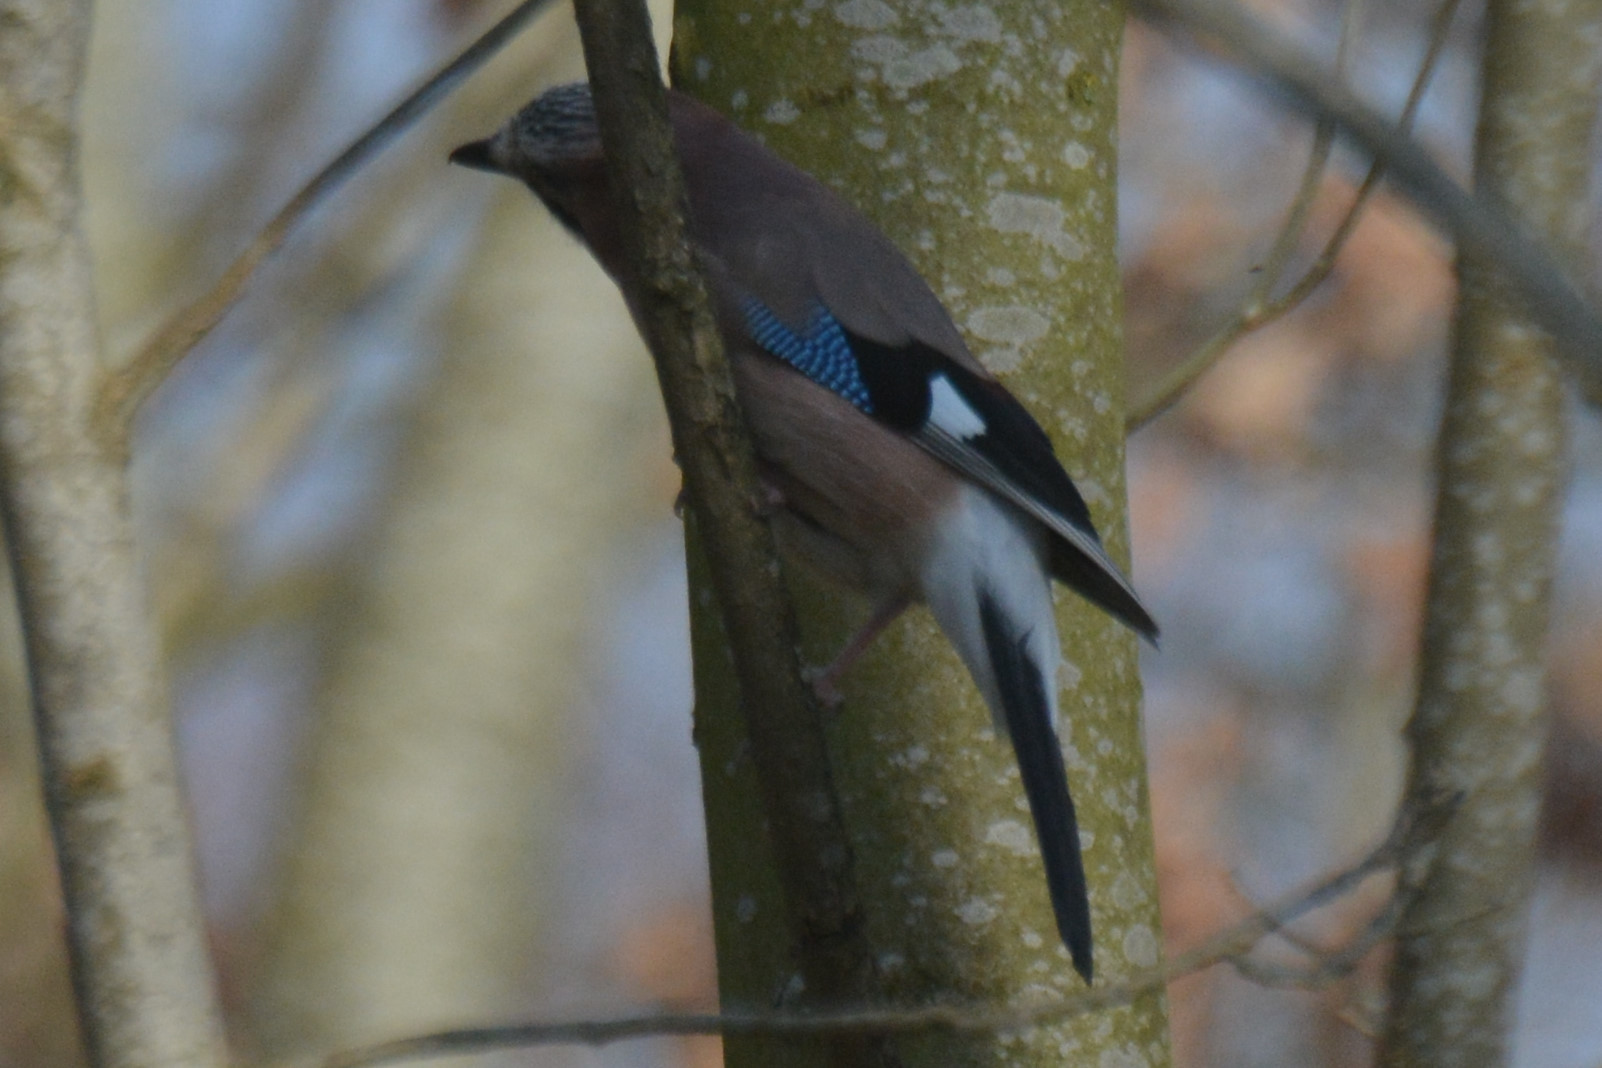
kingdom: Animalia
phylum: Chordata
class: Aves
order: Passeriformes
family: Corvidae
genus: Garrulus
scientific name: Garrulus glandarius
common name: Eurasian jay
